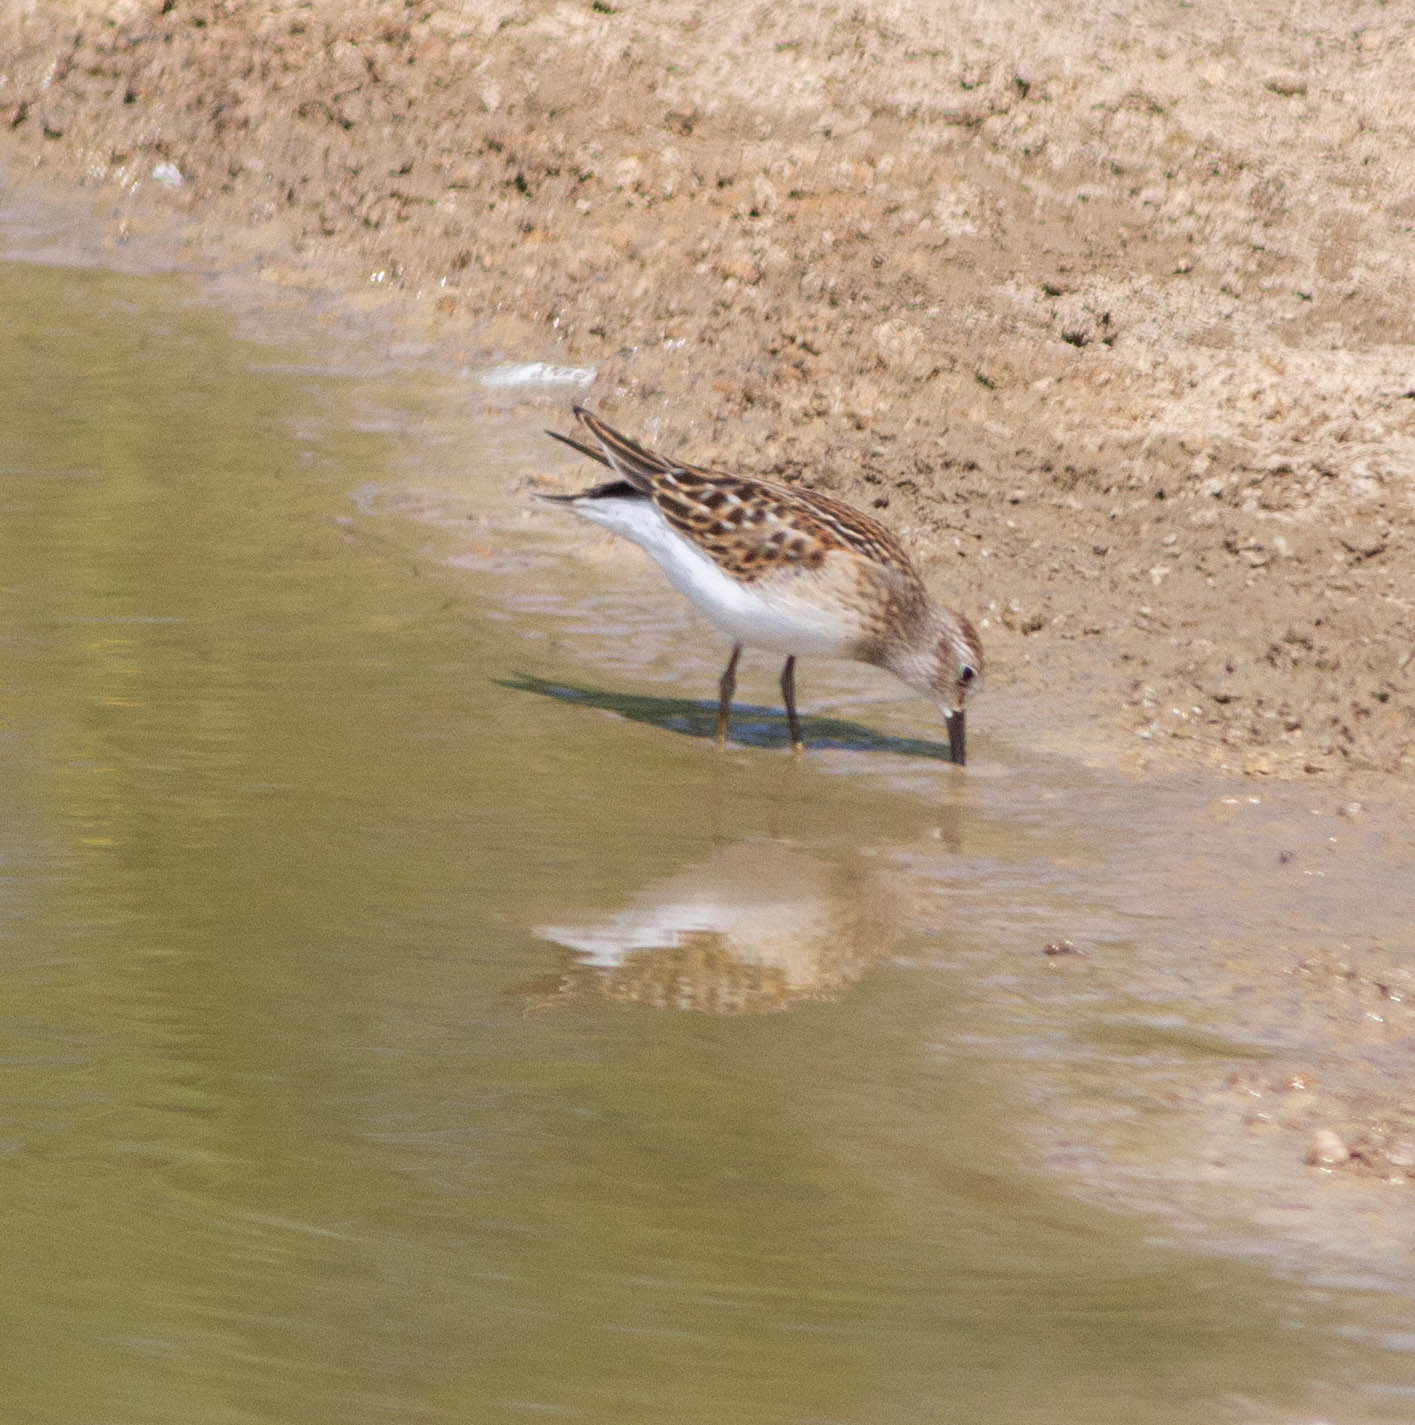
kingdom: Animalia
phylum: Chordata
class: Aves
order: Charadriiformes
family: Scolopacidae
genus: Calidris
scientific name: Calidris minutilla
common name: Least sandpiper
